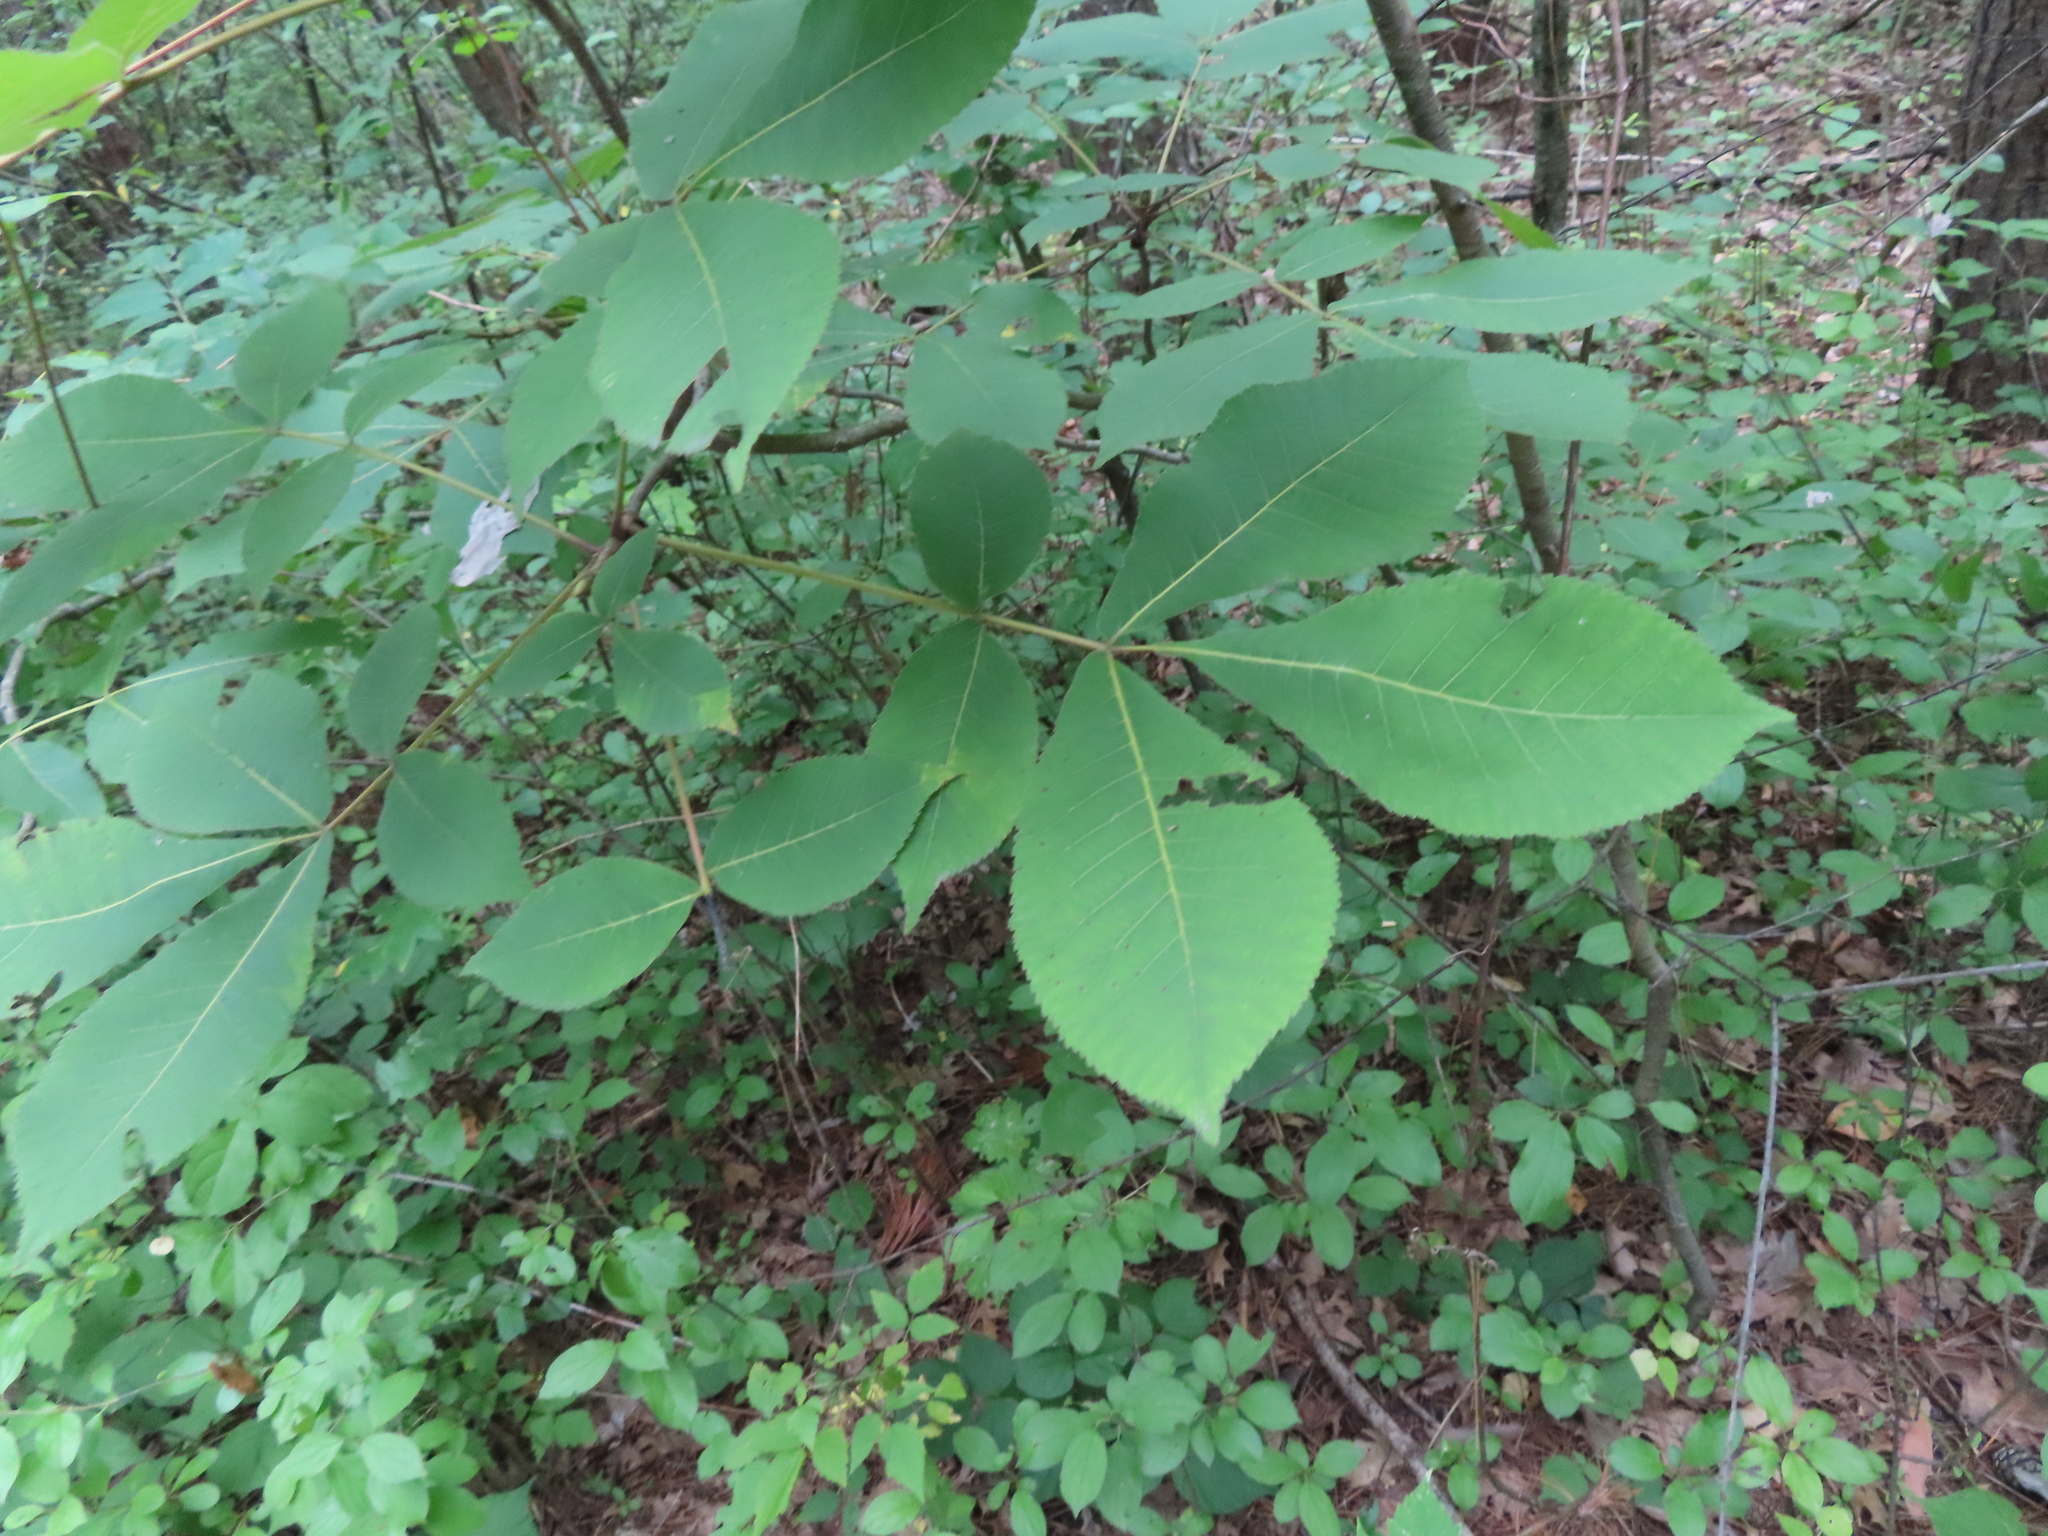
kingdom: Plantae
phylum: Tracheophyta
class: Magnoliopsida
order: Fagales
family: Juglandaceae
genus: Carya
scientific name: Carya ovata
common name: Shagbark hickory
